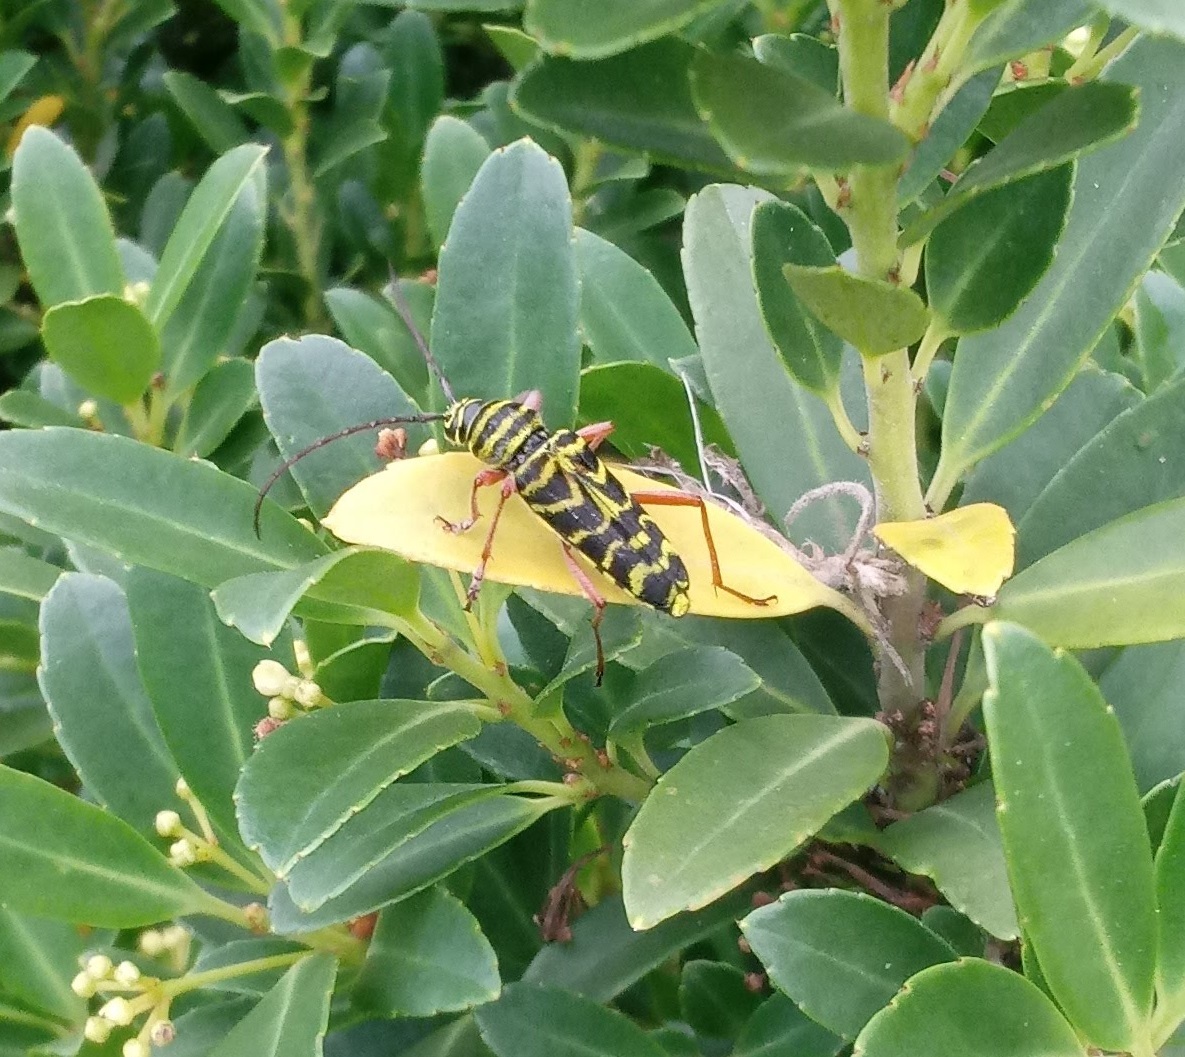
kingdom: Animalia
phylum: Arthropoda
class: Insecta
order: Coleoptera
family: Cerambycidae
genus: Megacyllene
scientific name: Megacyllene robiniae
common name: Locust borer
